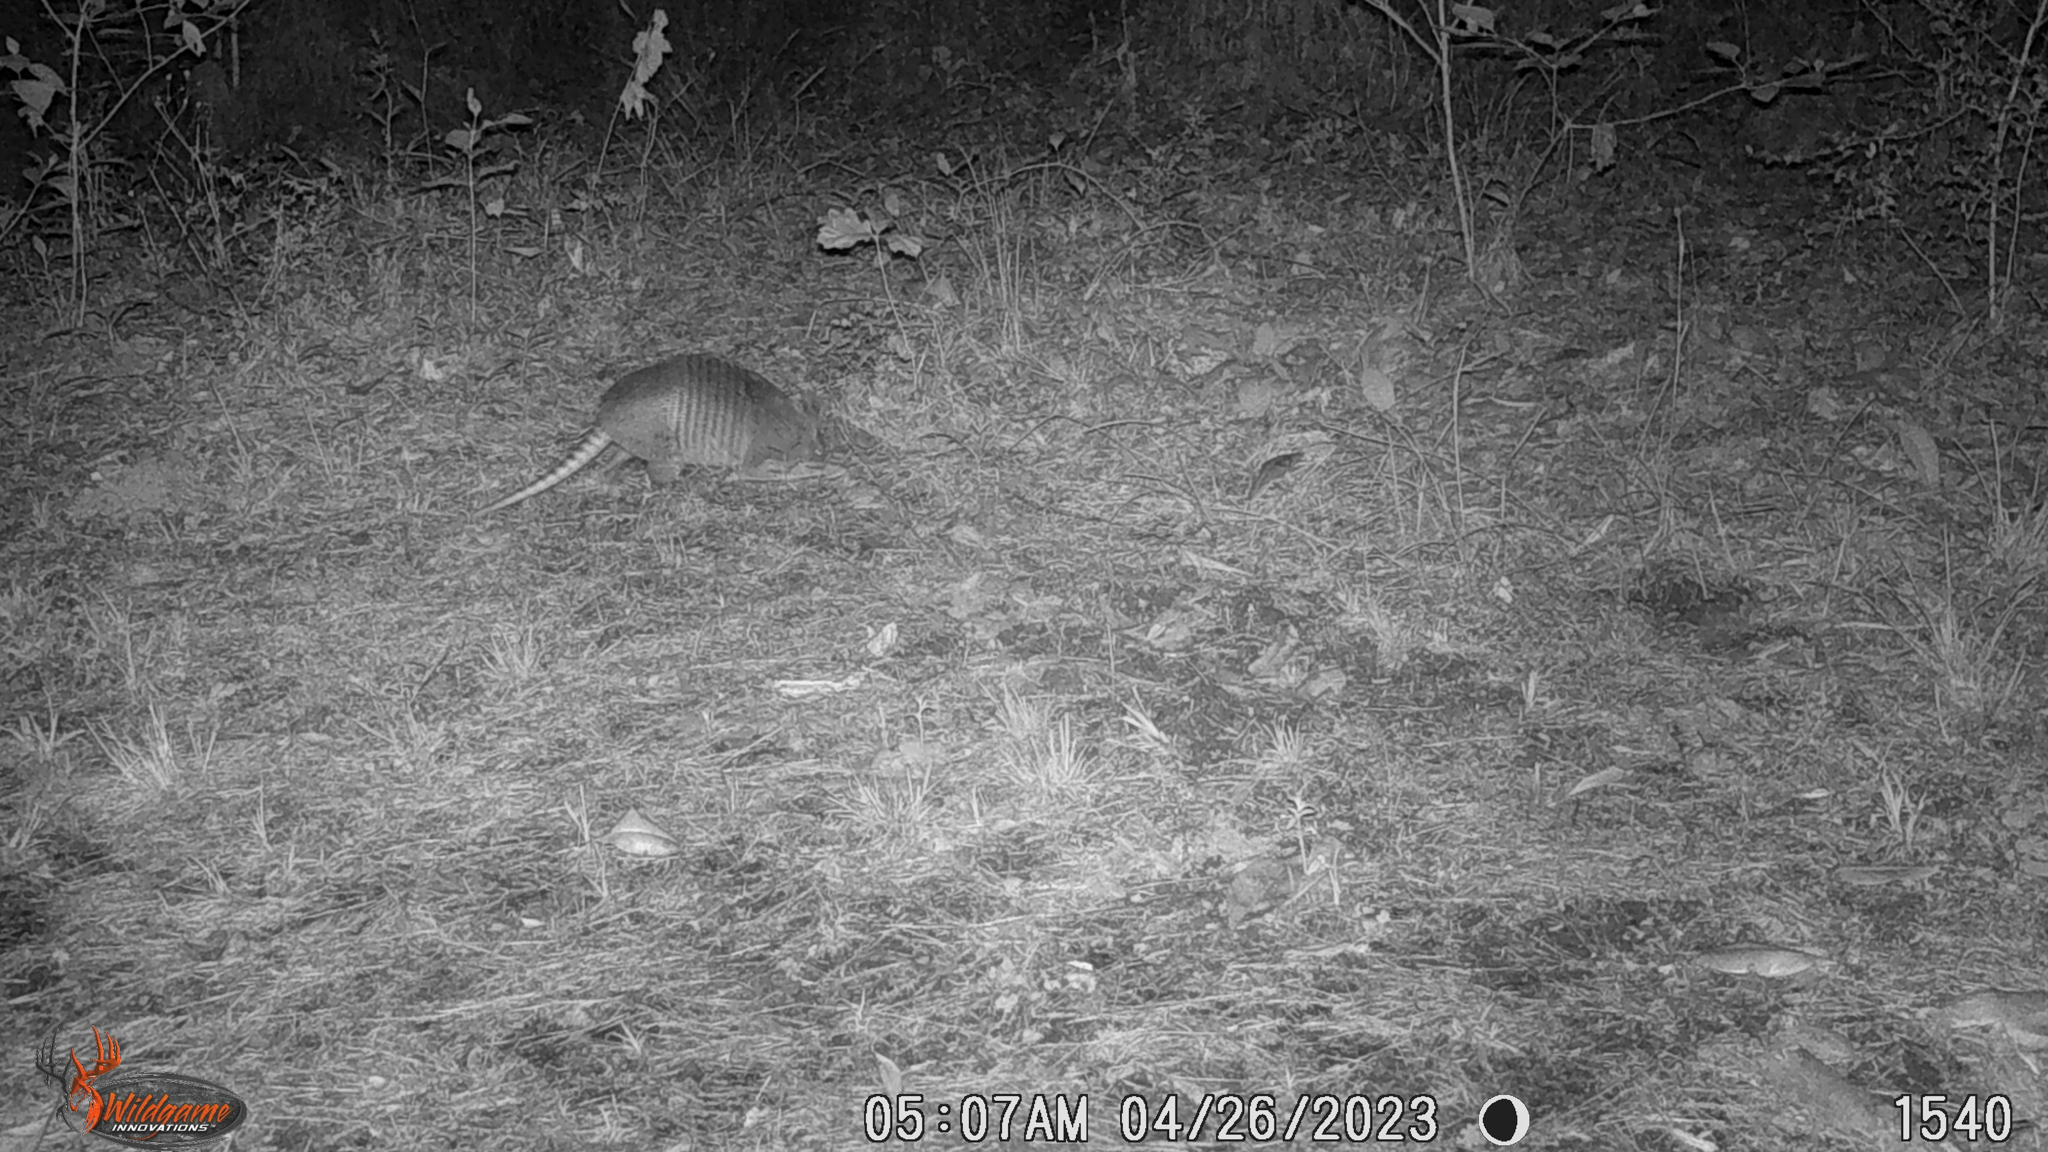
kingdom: Animalia
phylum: Chordata
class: Mammalia
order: Cingulata
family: Dasypodidae
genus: Dasypus
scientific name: Dasypus novemcinctus
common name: Nine-banded armadillo
